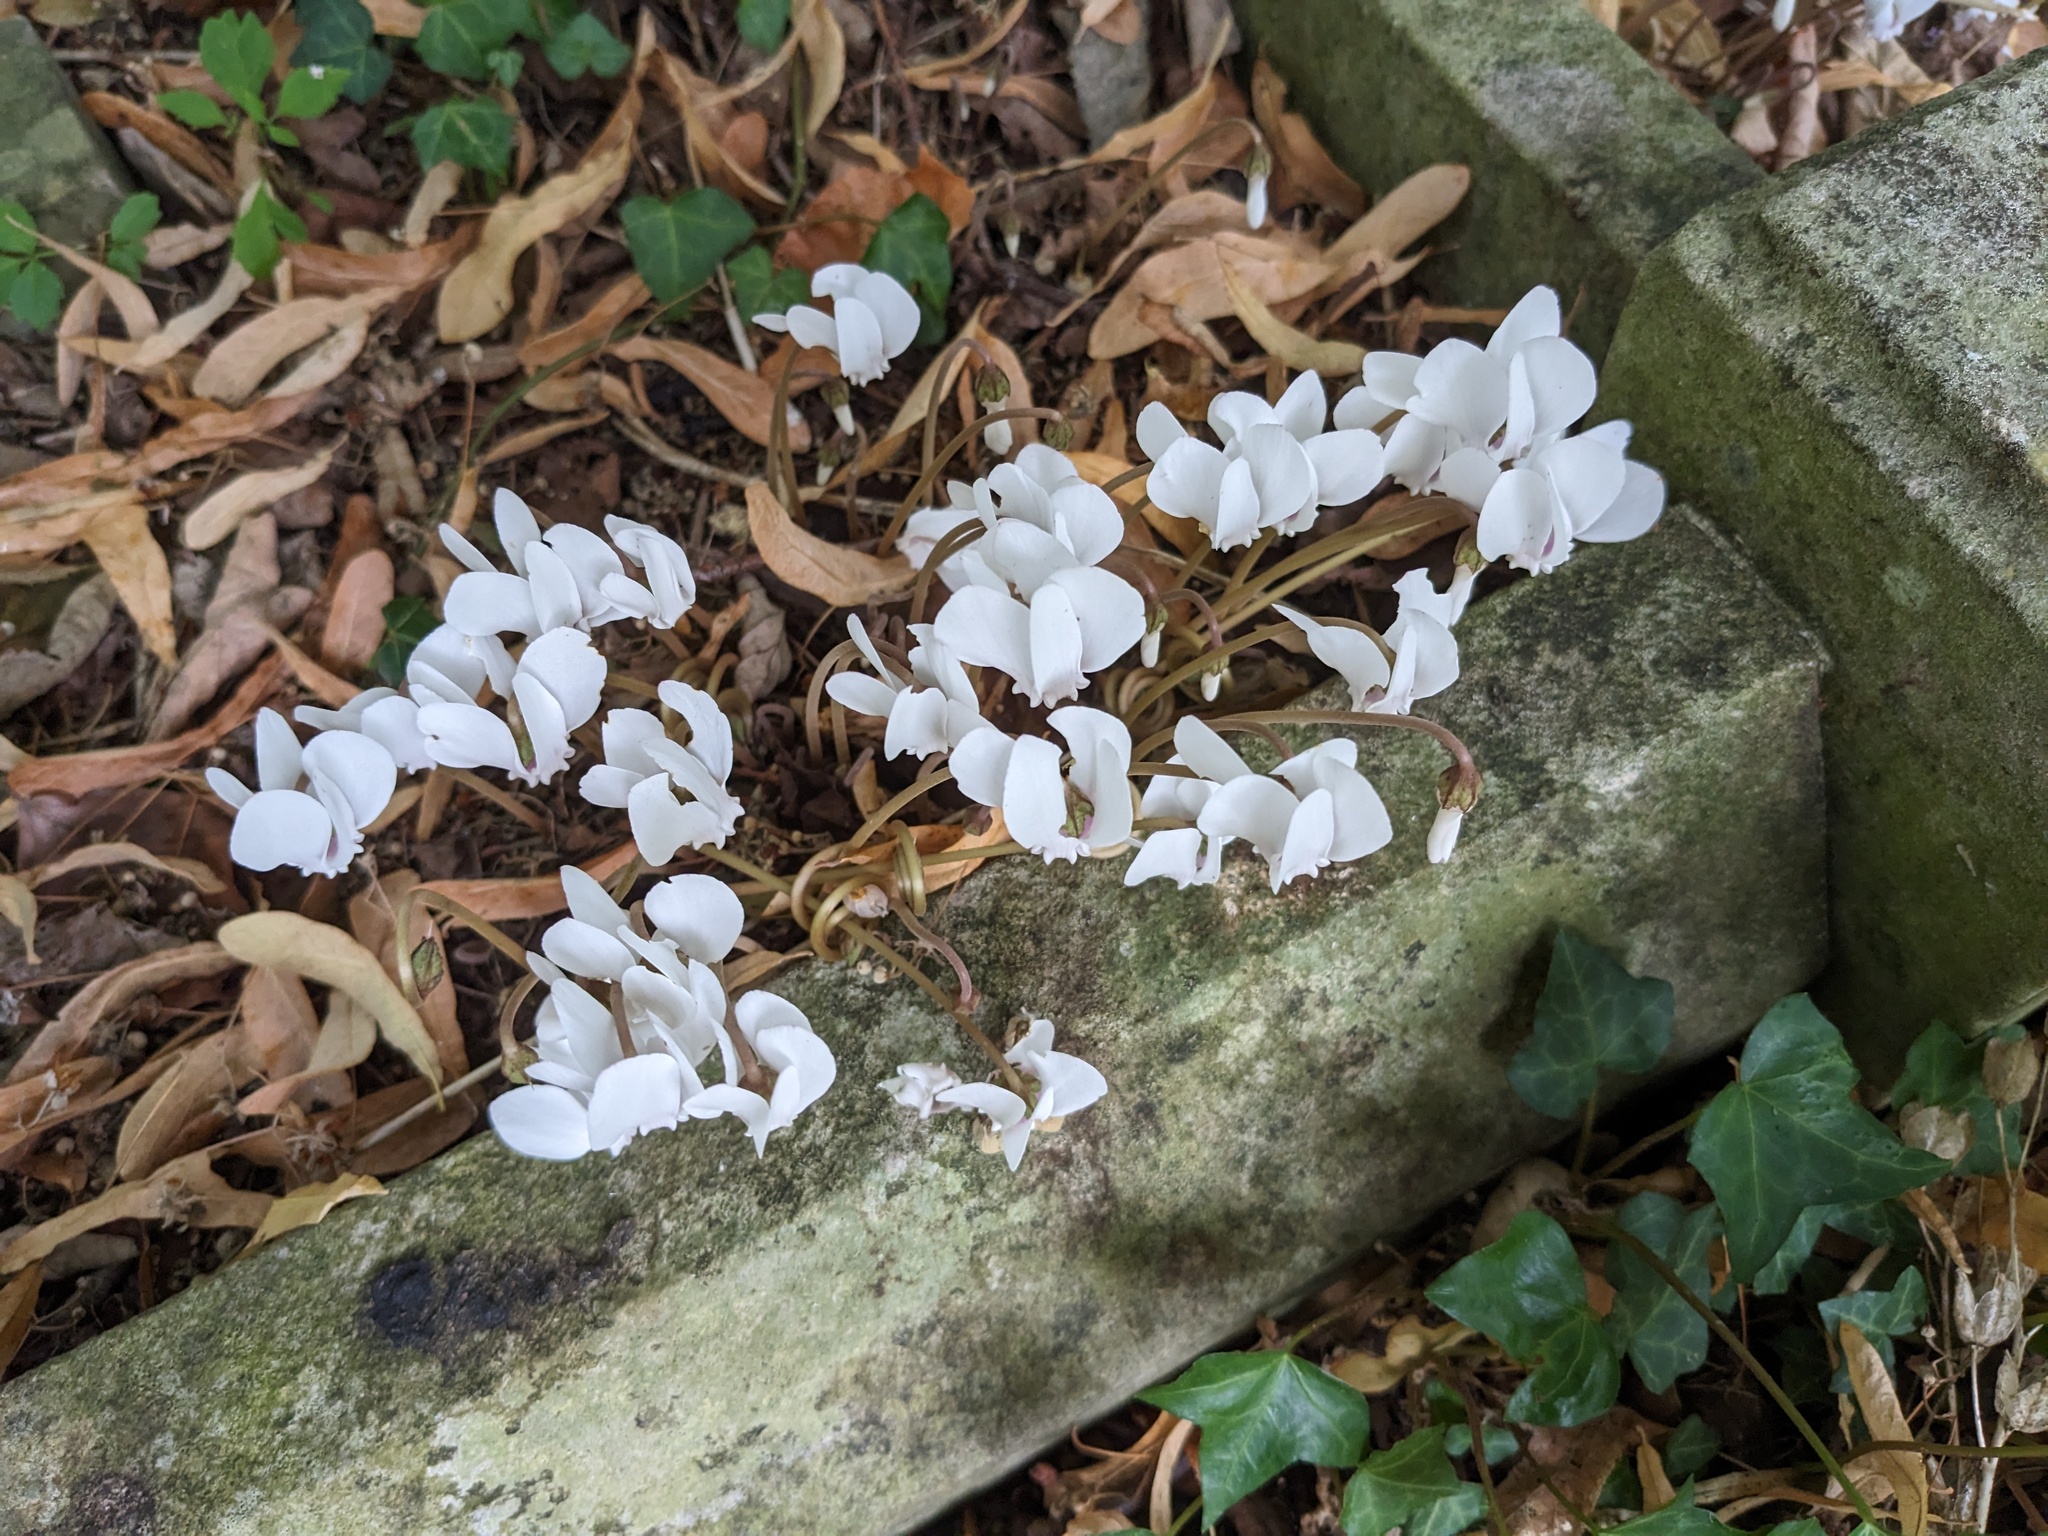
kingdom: Plantae
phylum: Tracheophyta
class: Magnoliopsida
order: Ericales
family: Primulaceae
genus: Cyclamen
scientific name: Cyclamen hederifolium
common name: Sowbread
